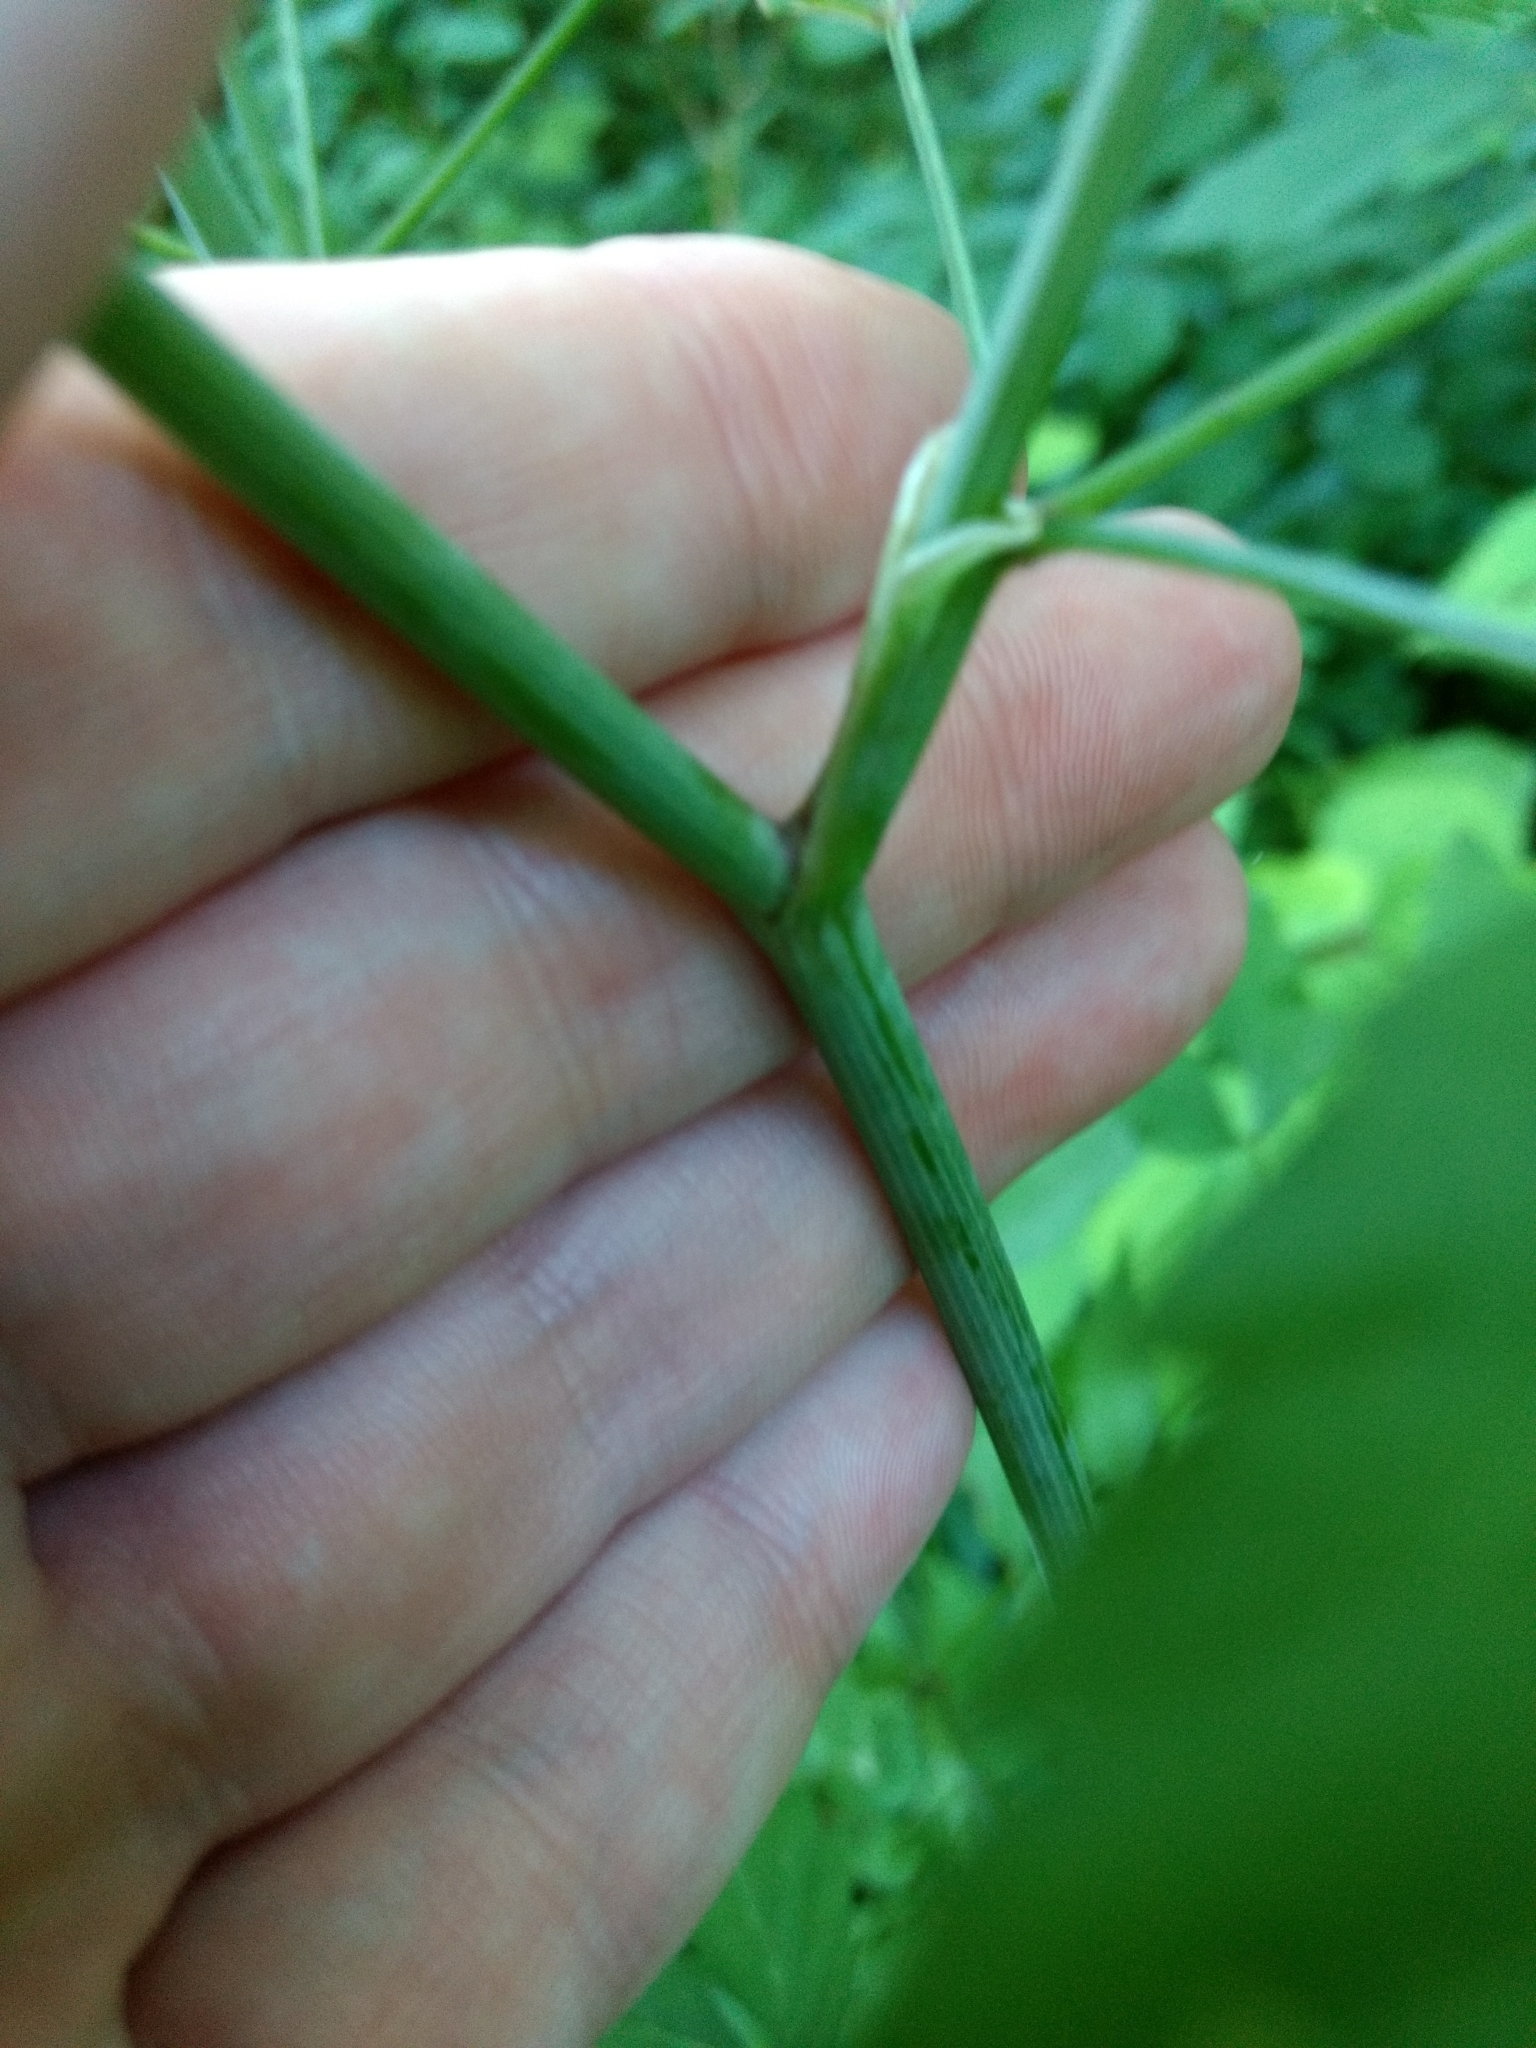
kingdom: Plantae
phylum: Tracheophyta
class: Magnoliopsida
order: Apiales
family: Apiaceae
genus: Cicuta
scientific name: Cicuta maculata
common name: Spotted cowbane
